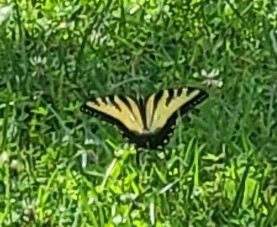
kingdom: Animalia
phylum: Arthropoda
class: Insecta
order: Lepidoptera
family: Papilionidae
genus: Papilio
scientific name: Papilio glaucus
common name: Tiger swallowtail
